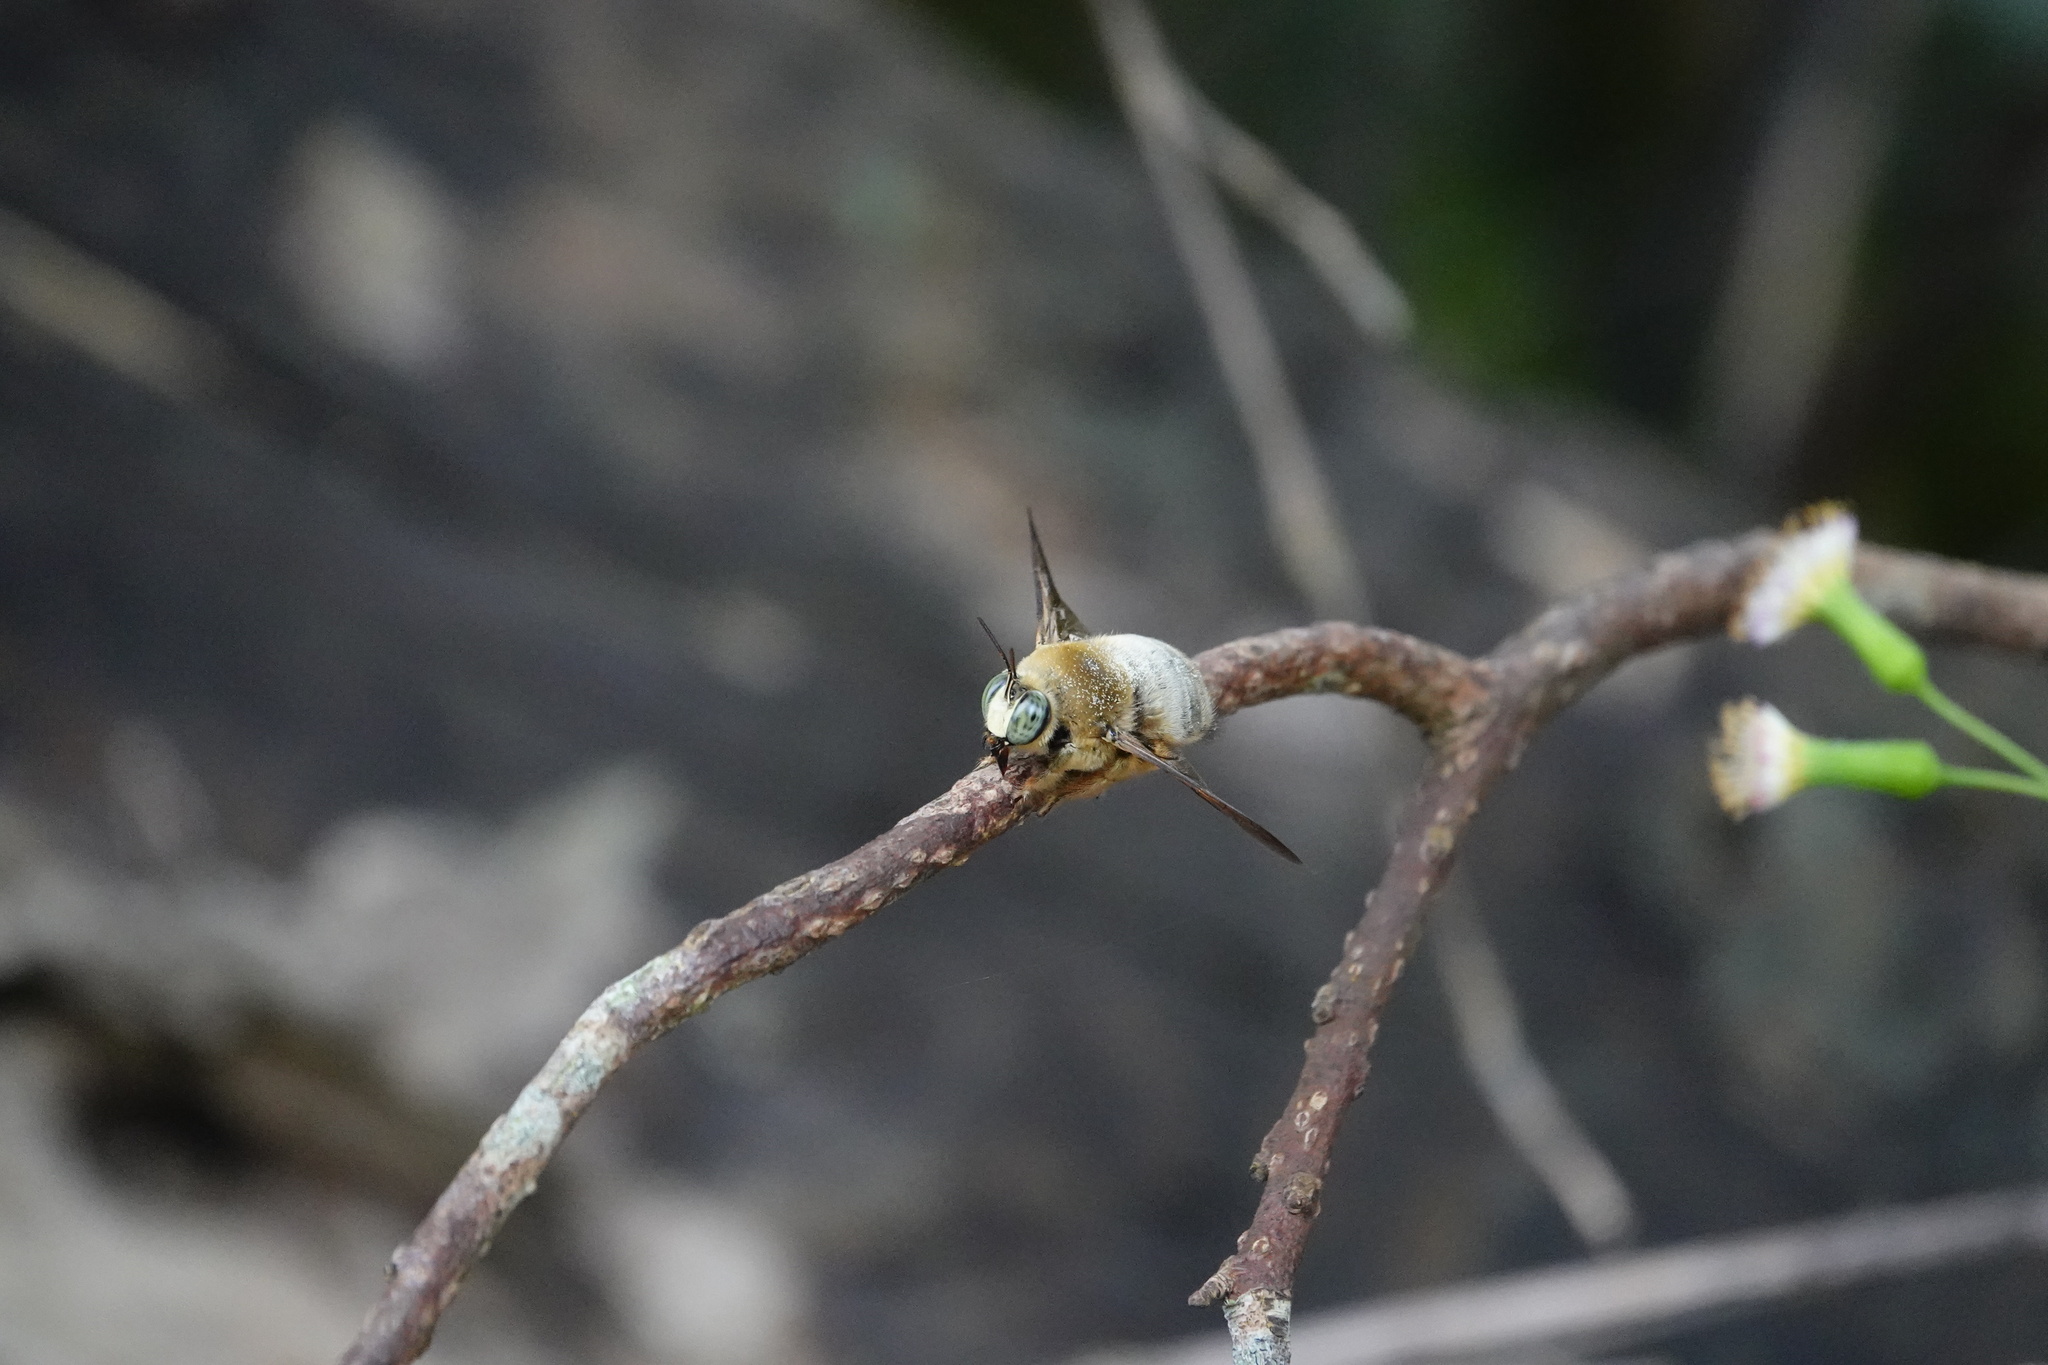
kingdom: Animalia
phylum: Arthropoda
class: Insecta
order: Hymenoptera
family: Apidae
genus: Xylocopa
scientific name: Xylocopa dejeanii
